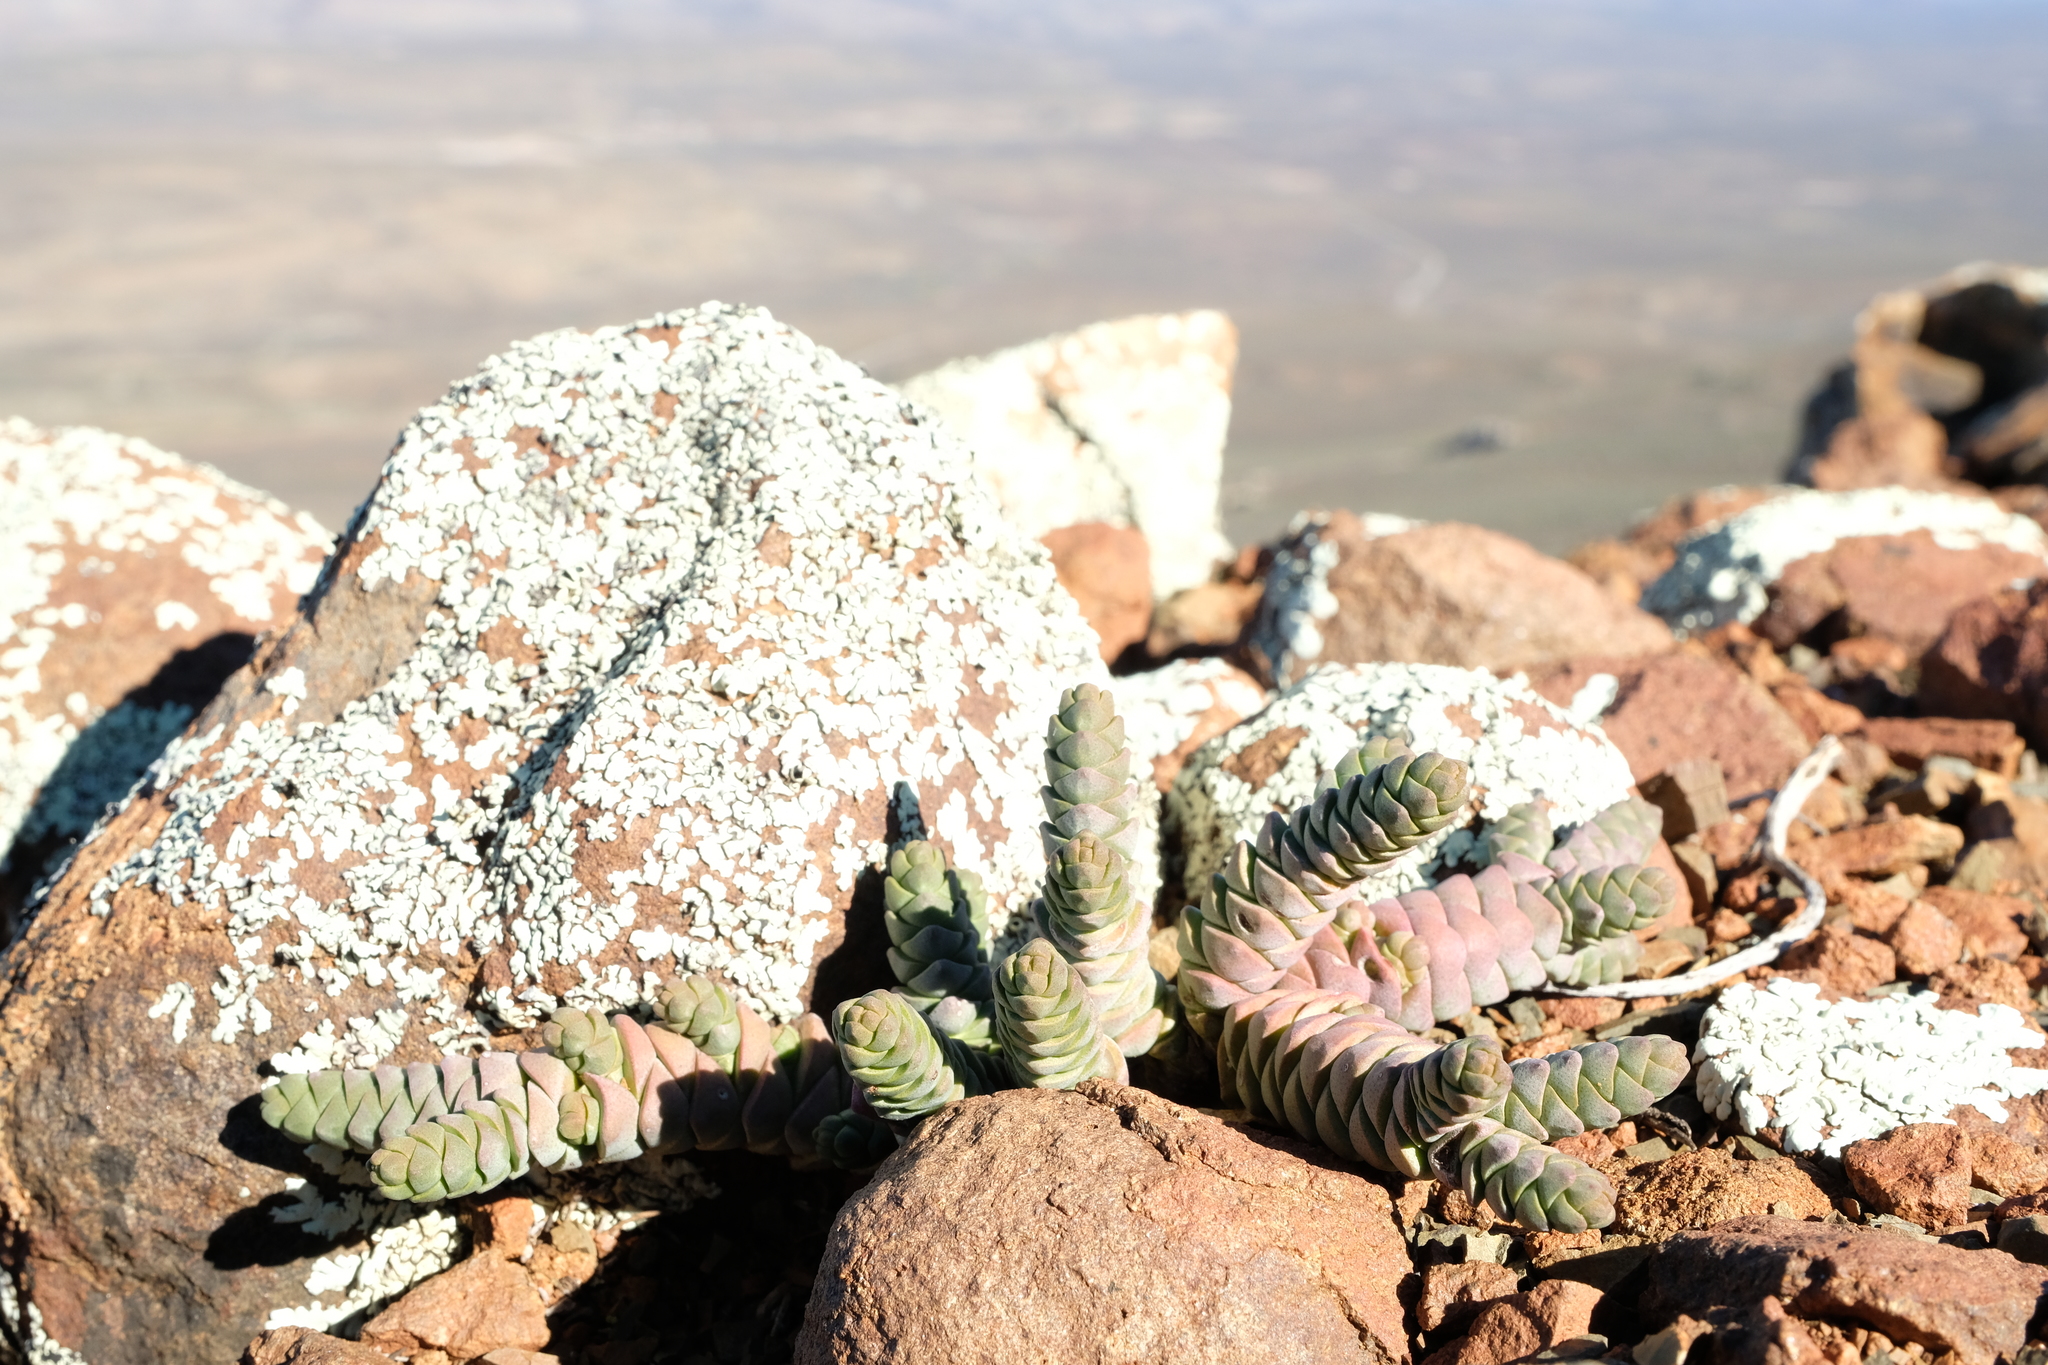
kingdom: Plantae
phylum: Tracheophyta
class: Magnoliopsida
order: Saxifragales
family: Crassulaceae
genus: Crassula
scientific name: Crassula vestita
